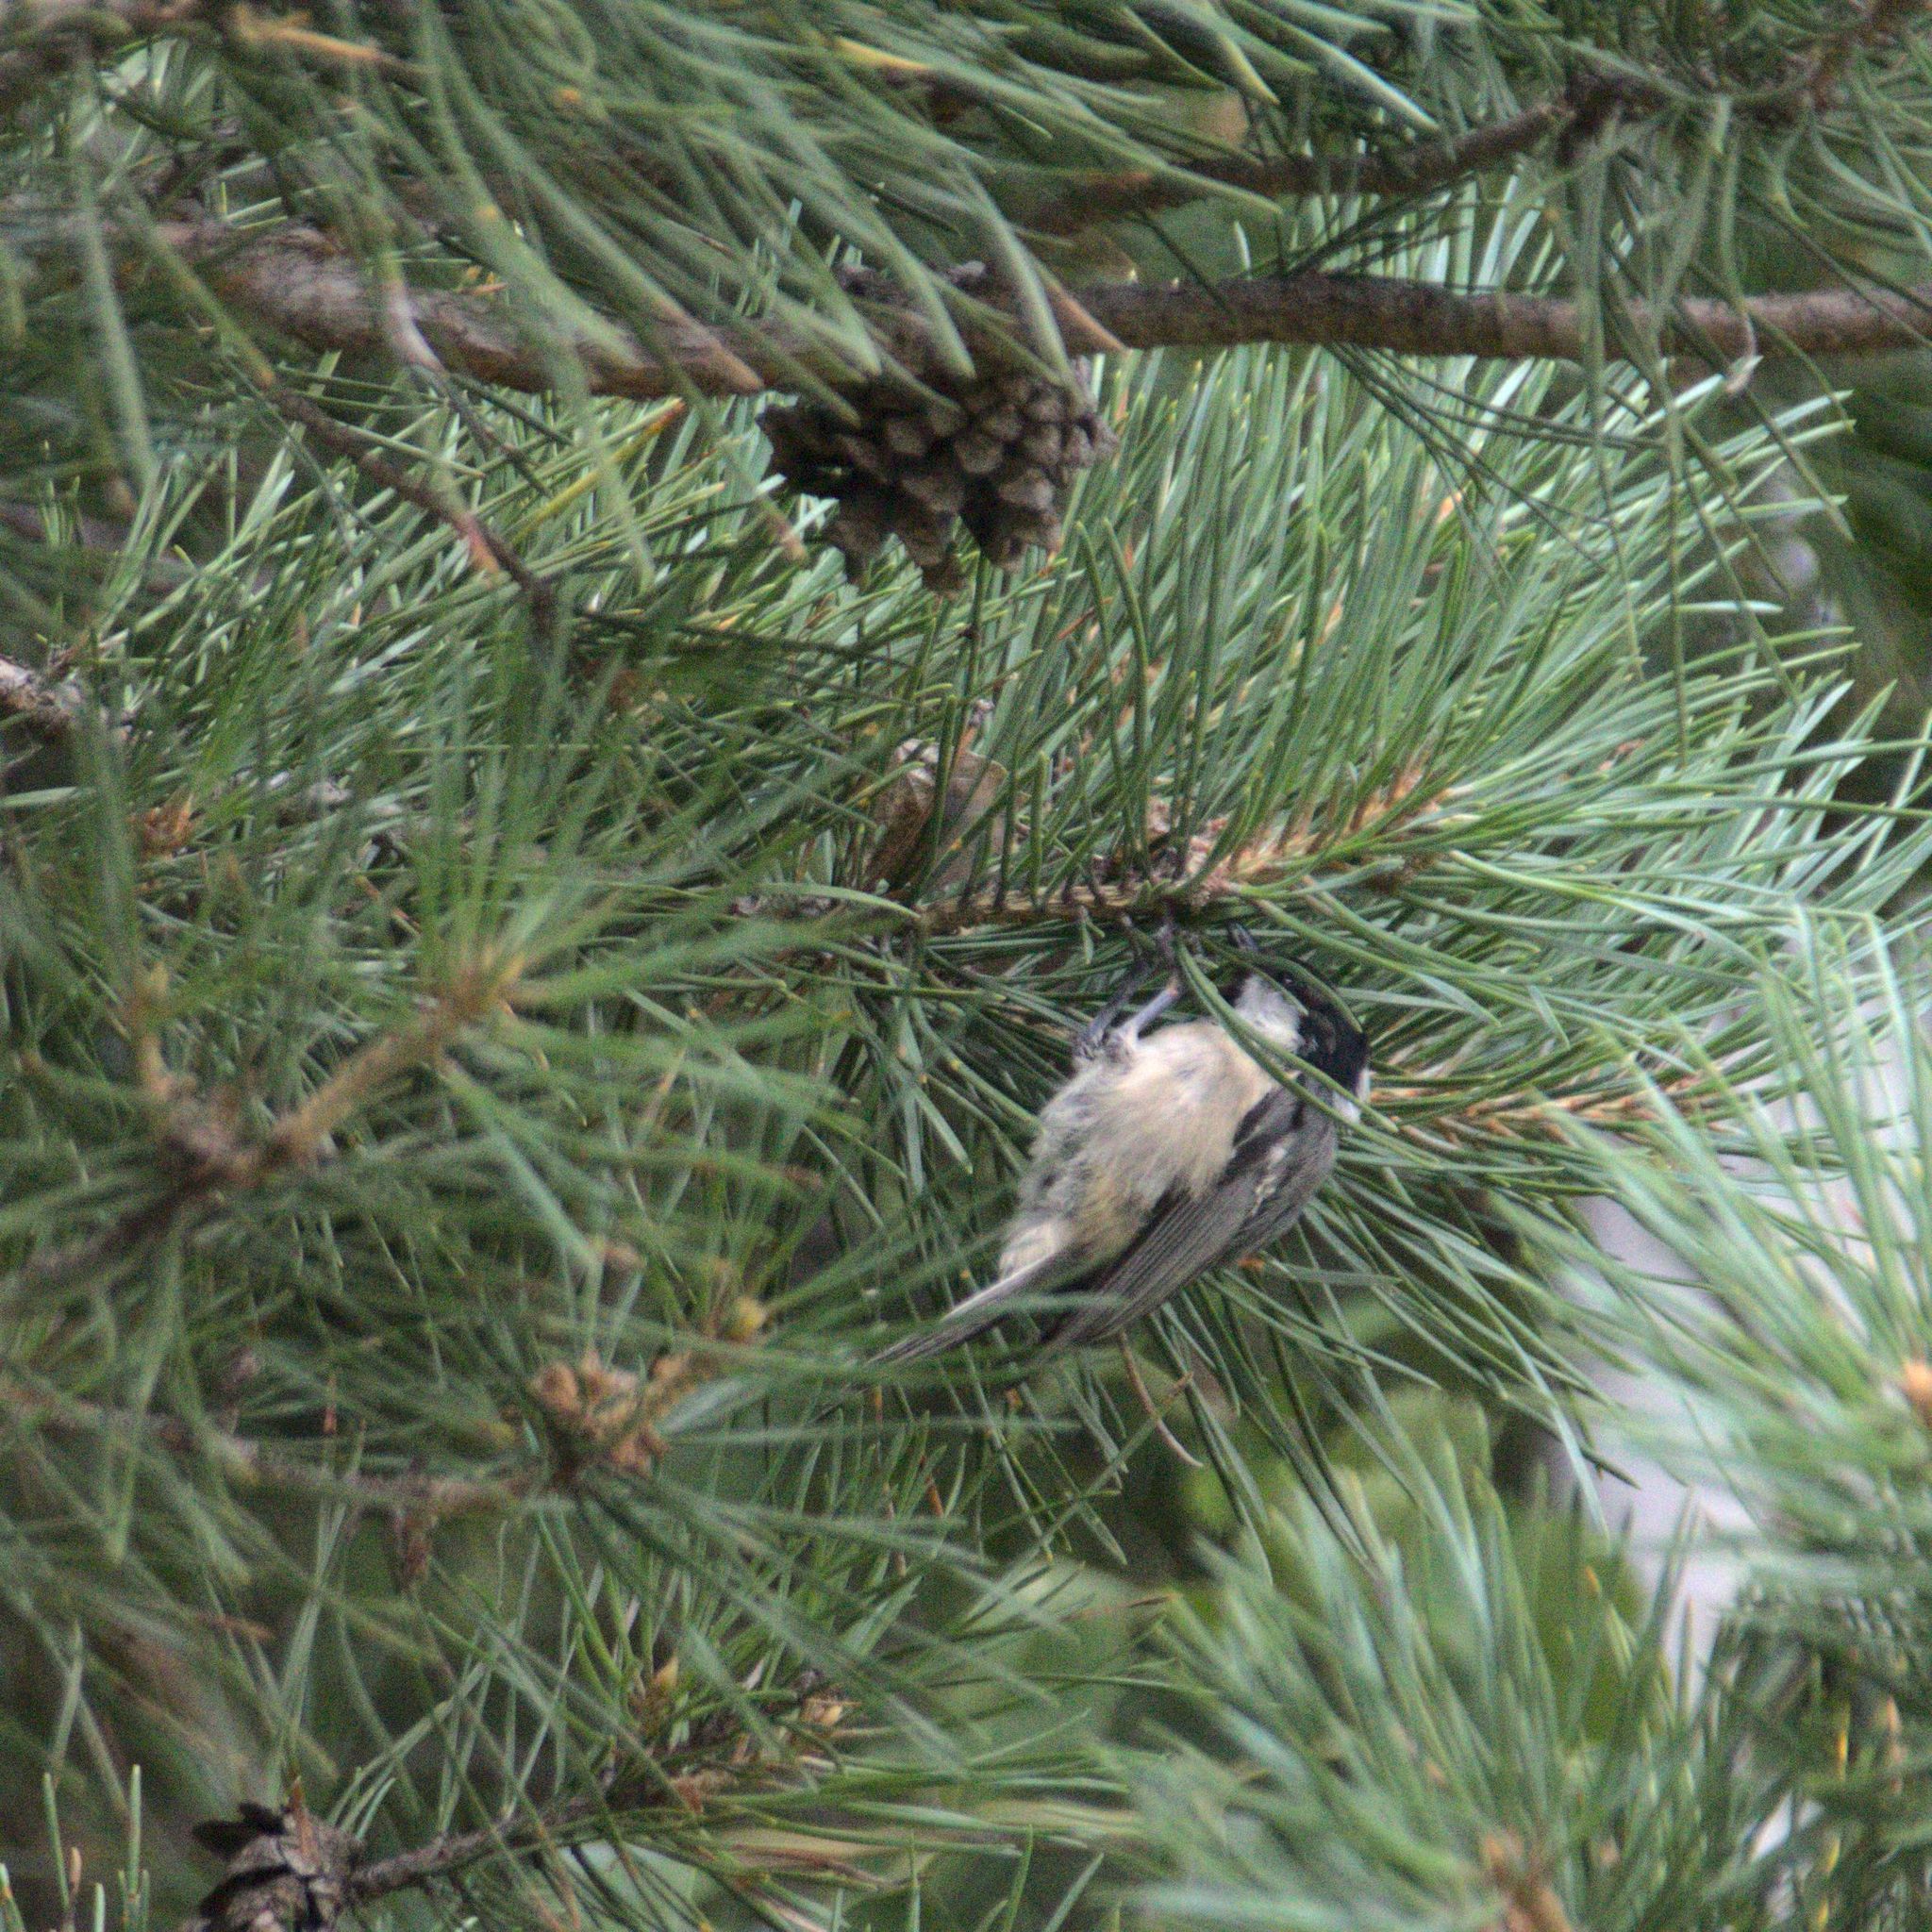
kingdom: Animalia
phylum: Chordata
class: Aves
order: Passeriformes
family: Paridae
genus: Periparus
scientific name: Periparus ater
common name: Coal tit
